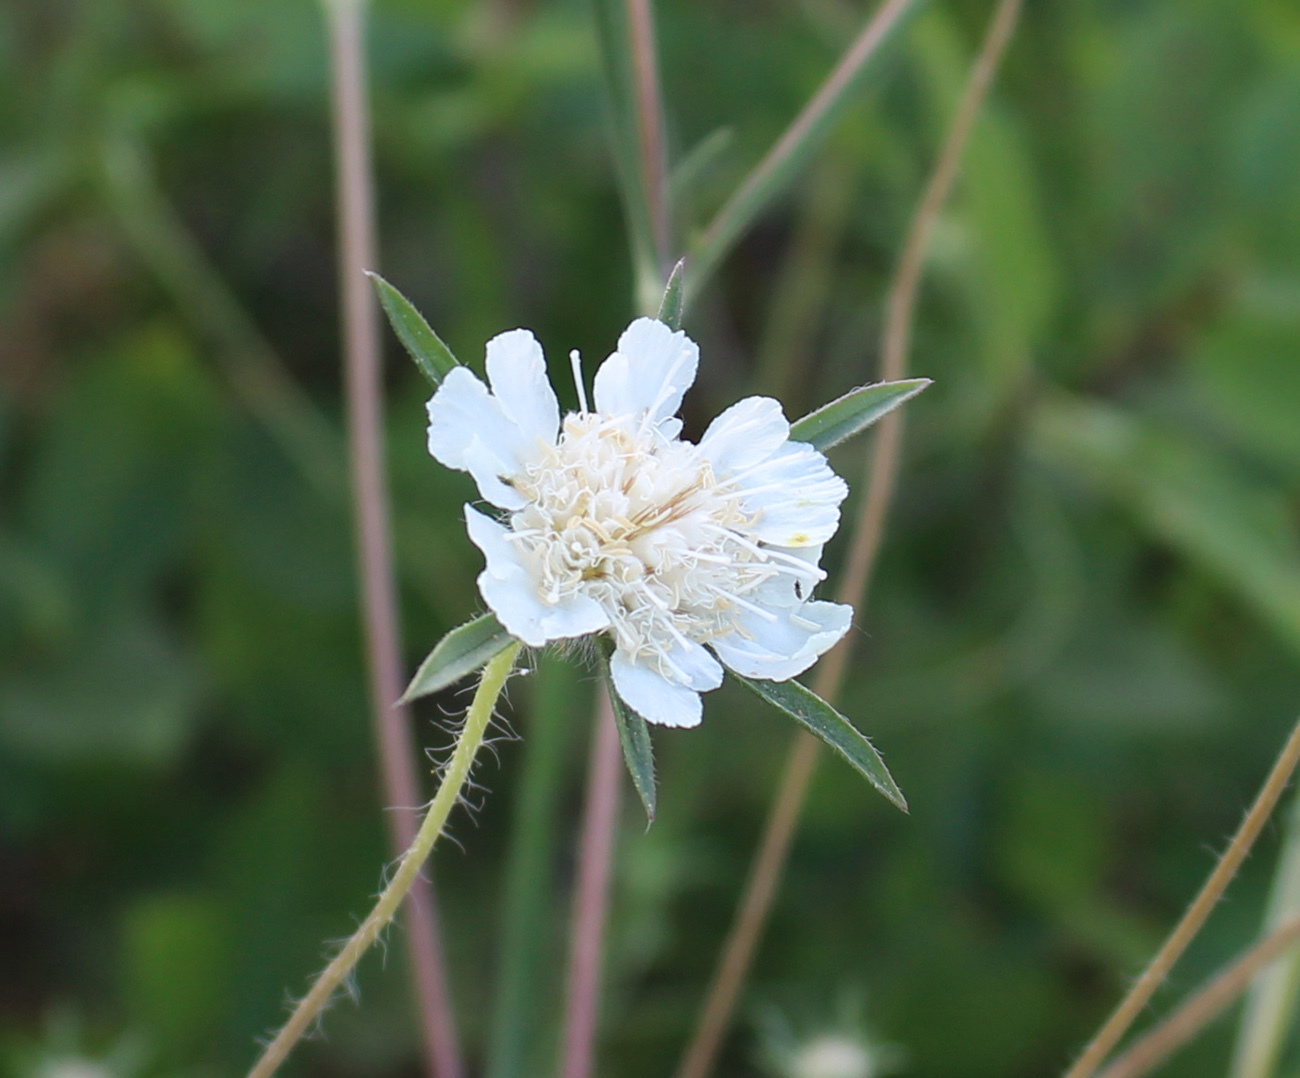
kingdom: Plantae
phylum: Tracheophyta
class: Magnoliopsida
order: Dipsacales
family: Caprifoliaceae
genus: Lomelosia
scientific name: Lomelosia argentea
